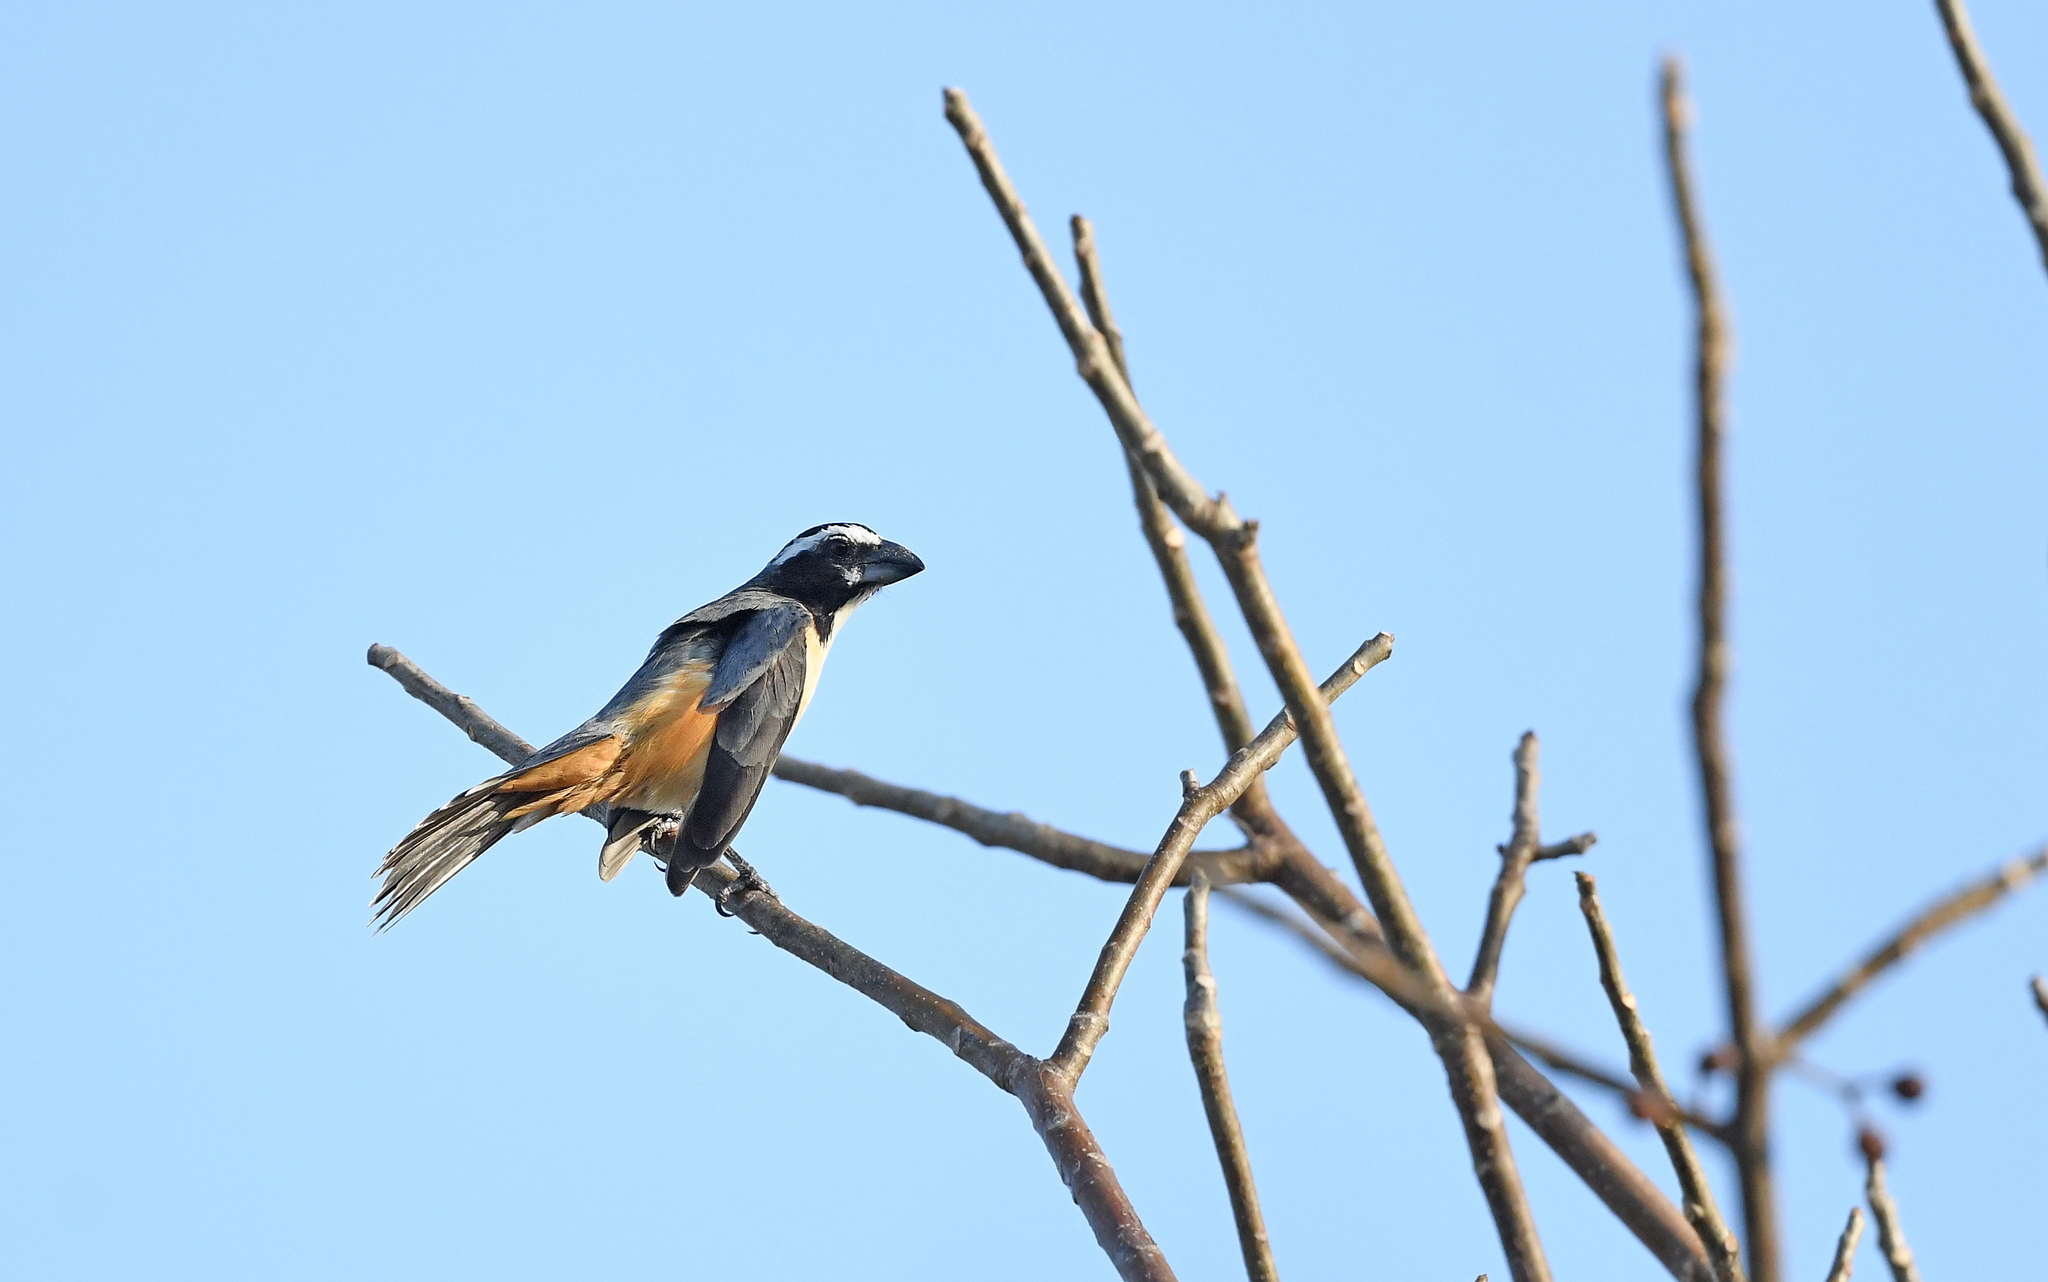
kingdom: Animalia
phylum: Chordata
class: Aves
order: Passeriformes
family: Thraupidae
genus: Saltator
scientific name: Saltator orenocensis
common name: Orinoco saltator
